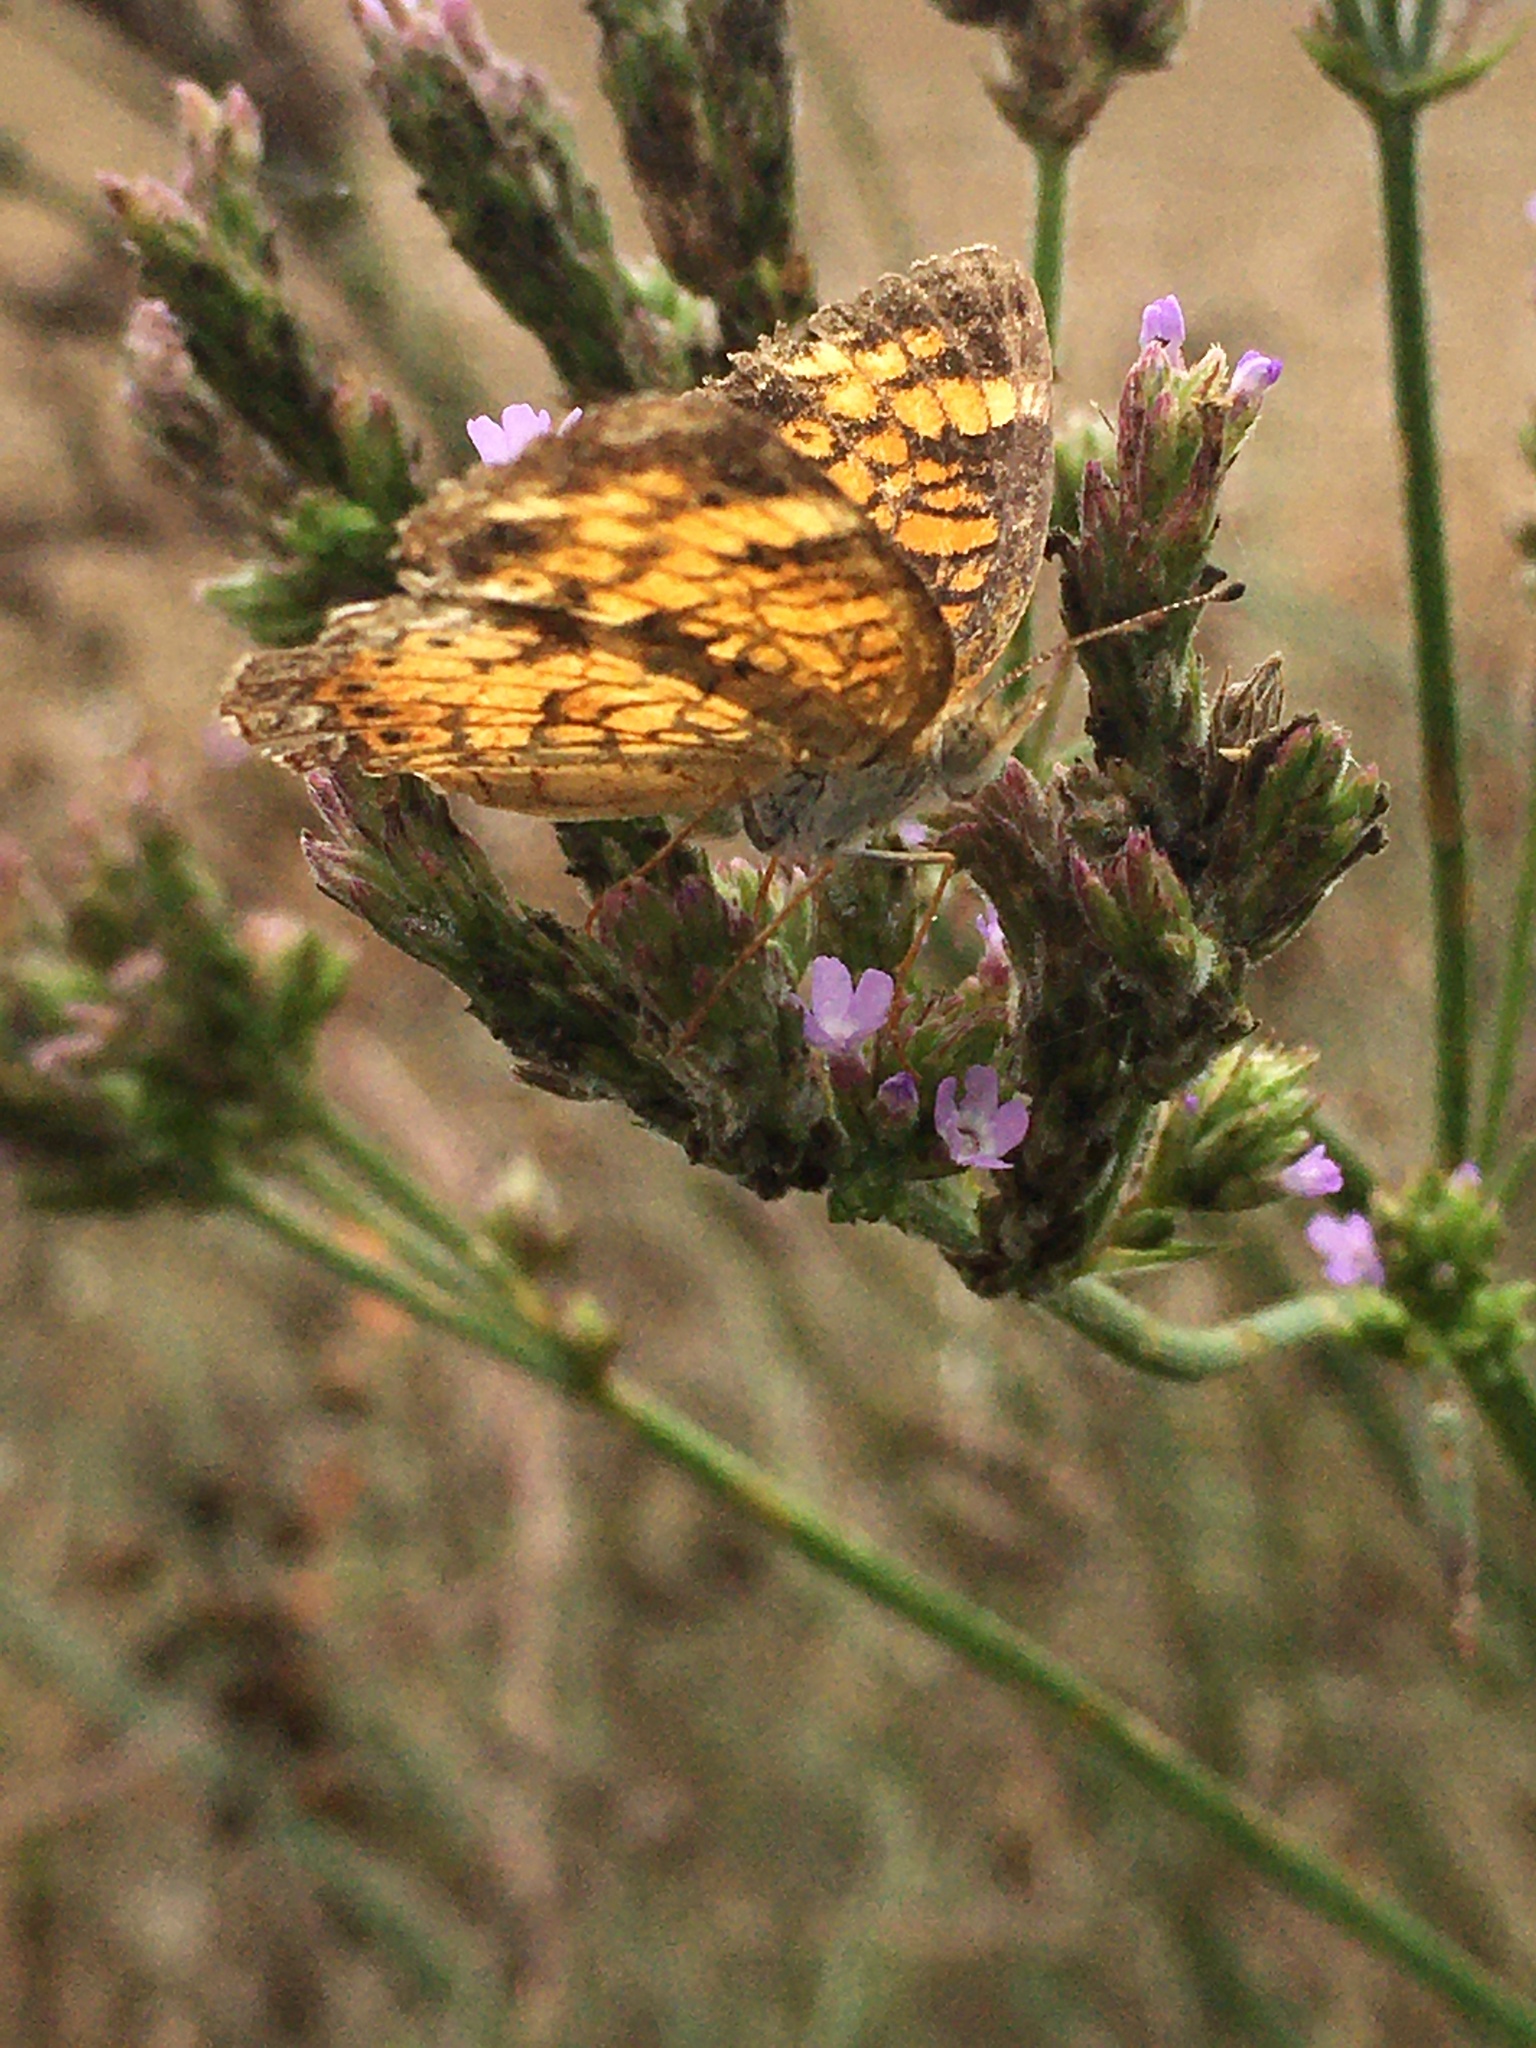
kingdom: Animalia
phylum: Arthropoda
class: Insecta
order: Lepidoptera
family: Nymphalidae
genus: Phyciodes
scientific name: Phyciodes tharos
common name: Pearl crescent
